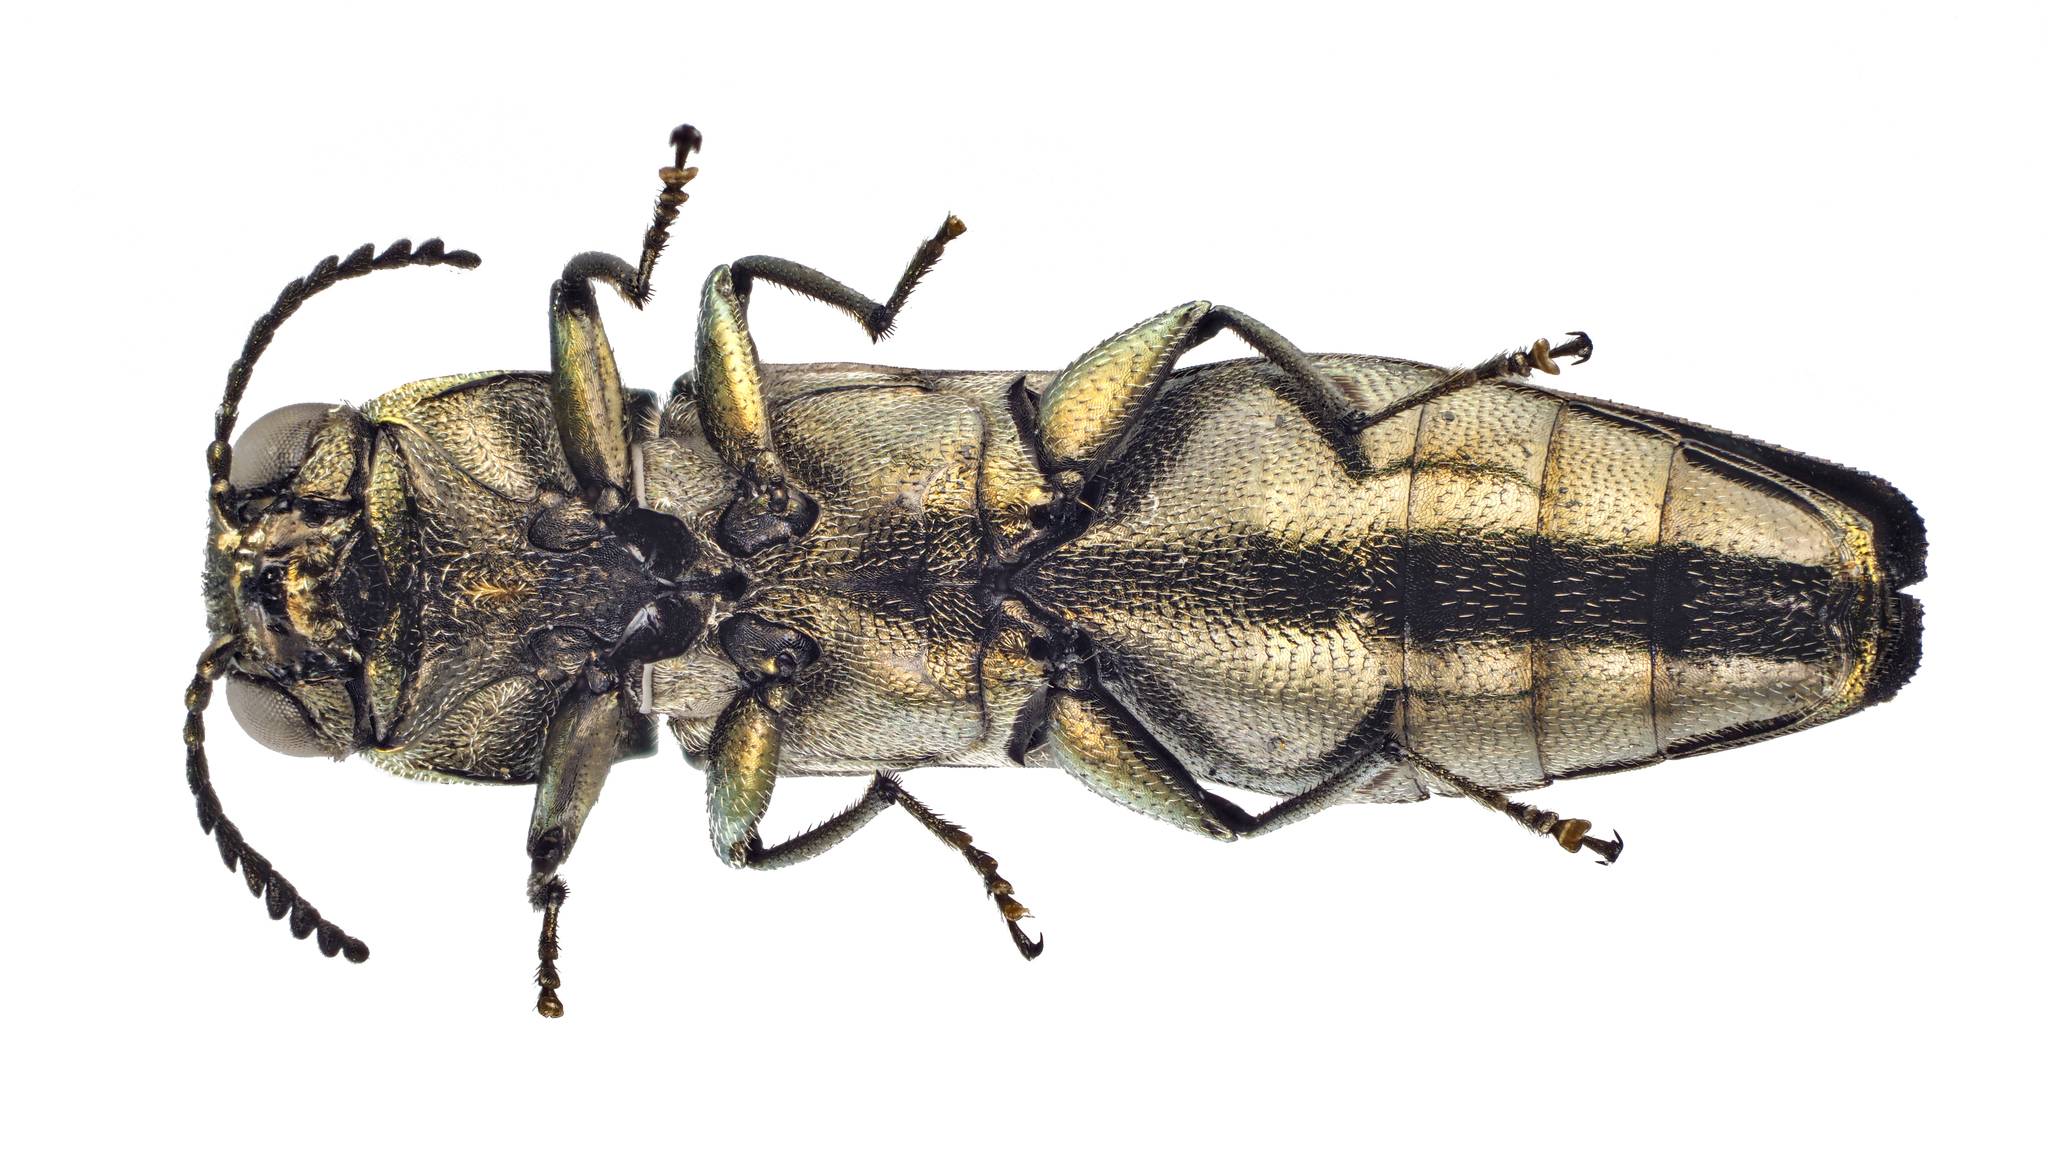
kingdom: Animalia
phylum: Arthropoda
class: Insecta
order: Coleoptera
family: Buprestidae
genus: Agrilus
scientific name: Agrilus olivicolor
